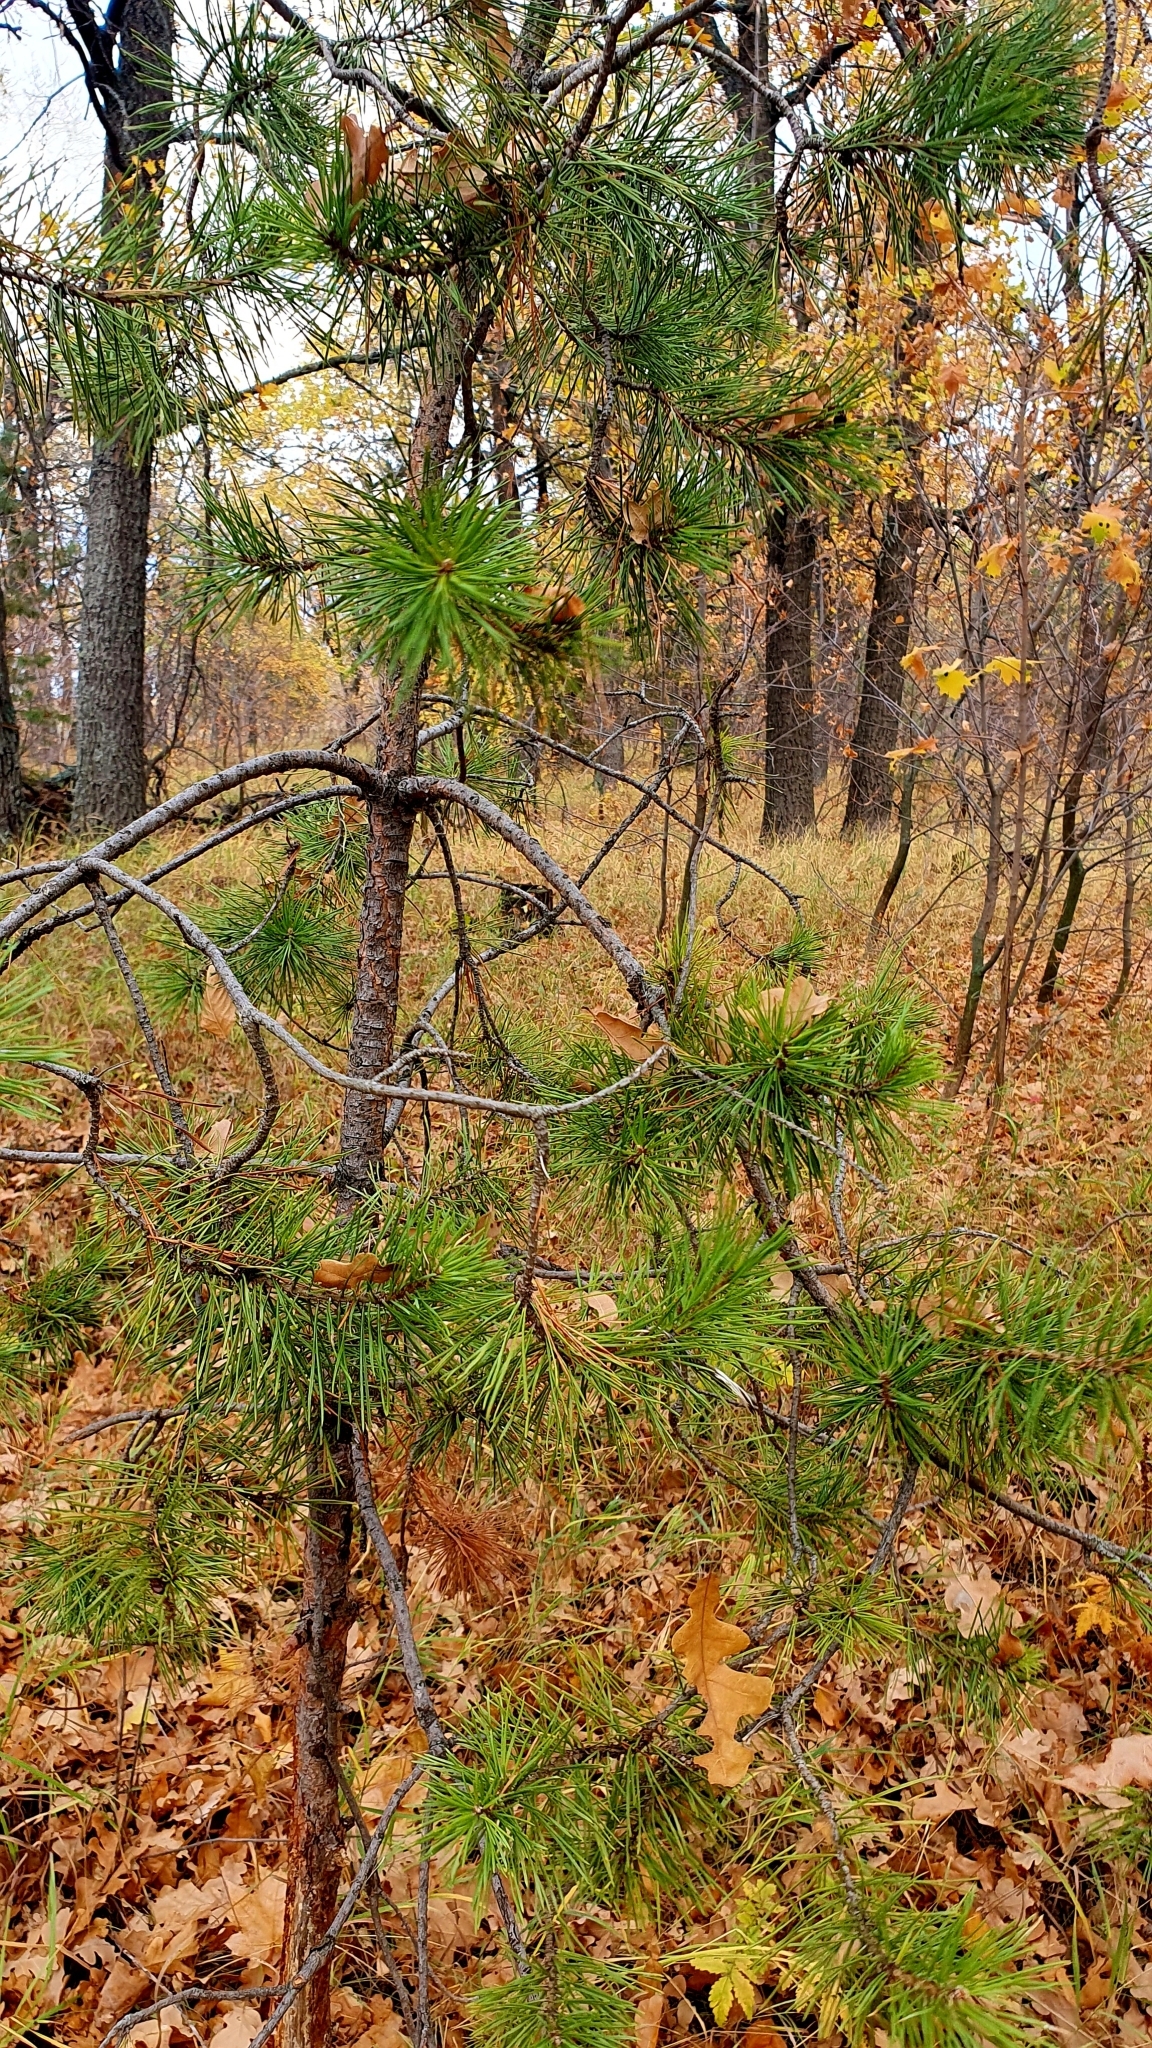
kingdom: Plantae
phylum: Tracheophyta
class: Pinopsida
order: Pinales
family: Pinaceae
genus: Pinus
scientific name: Pinus sylvestris
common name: Scots pine
